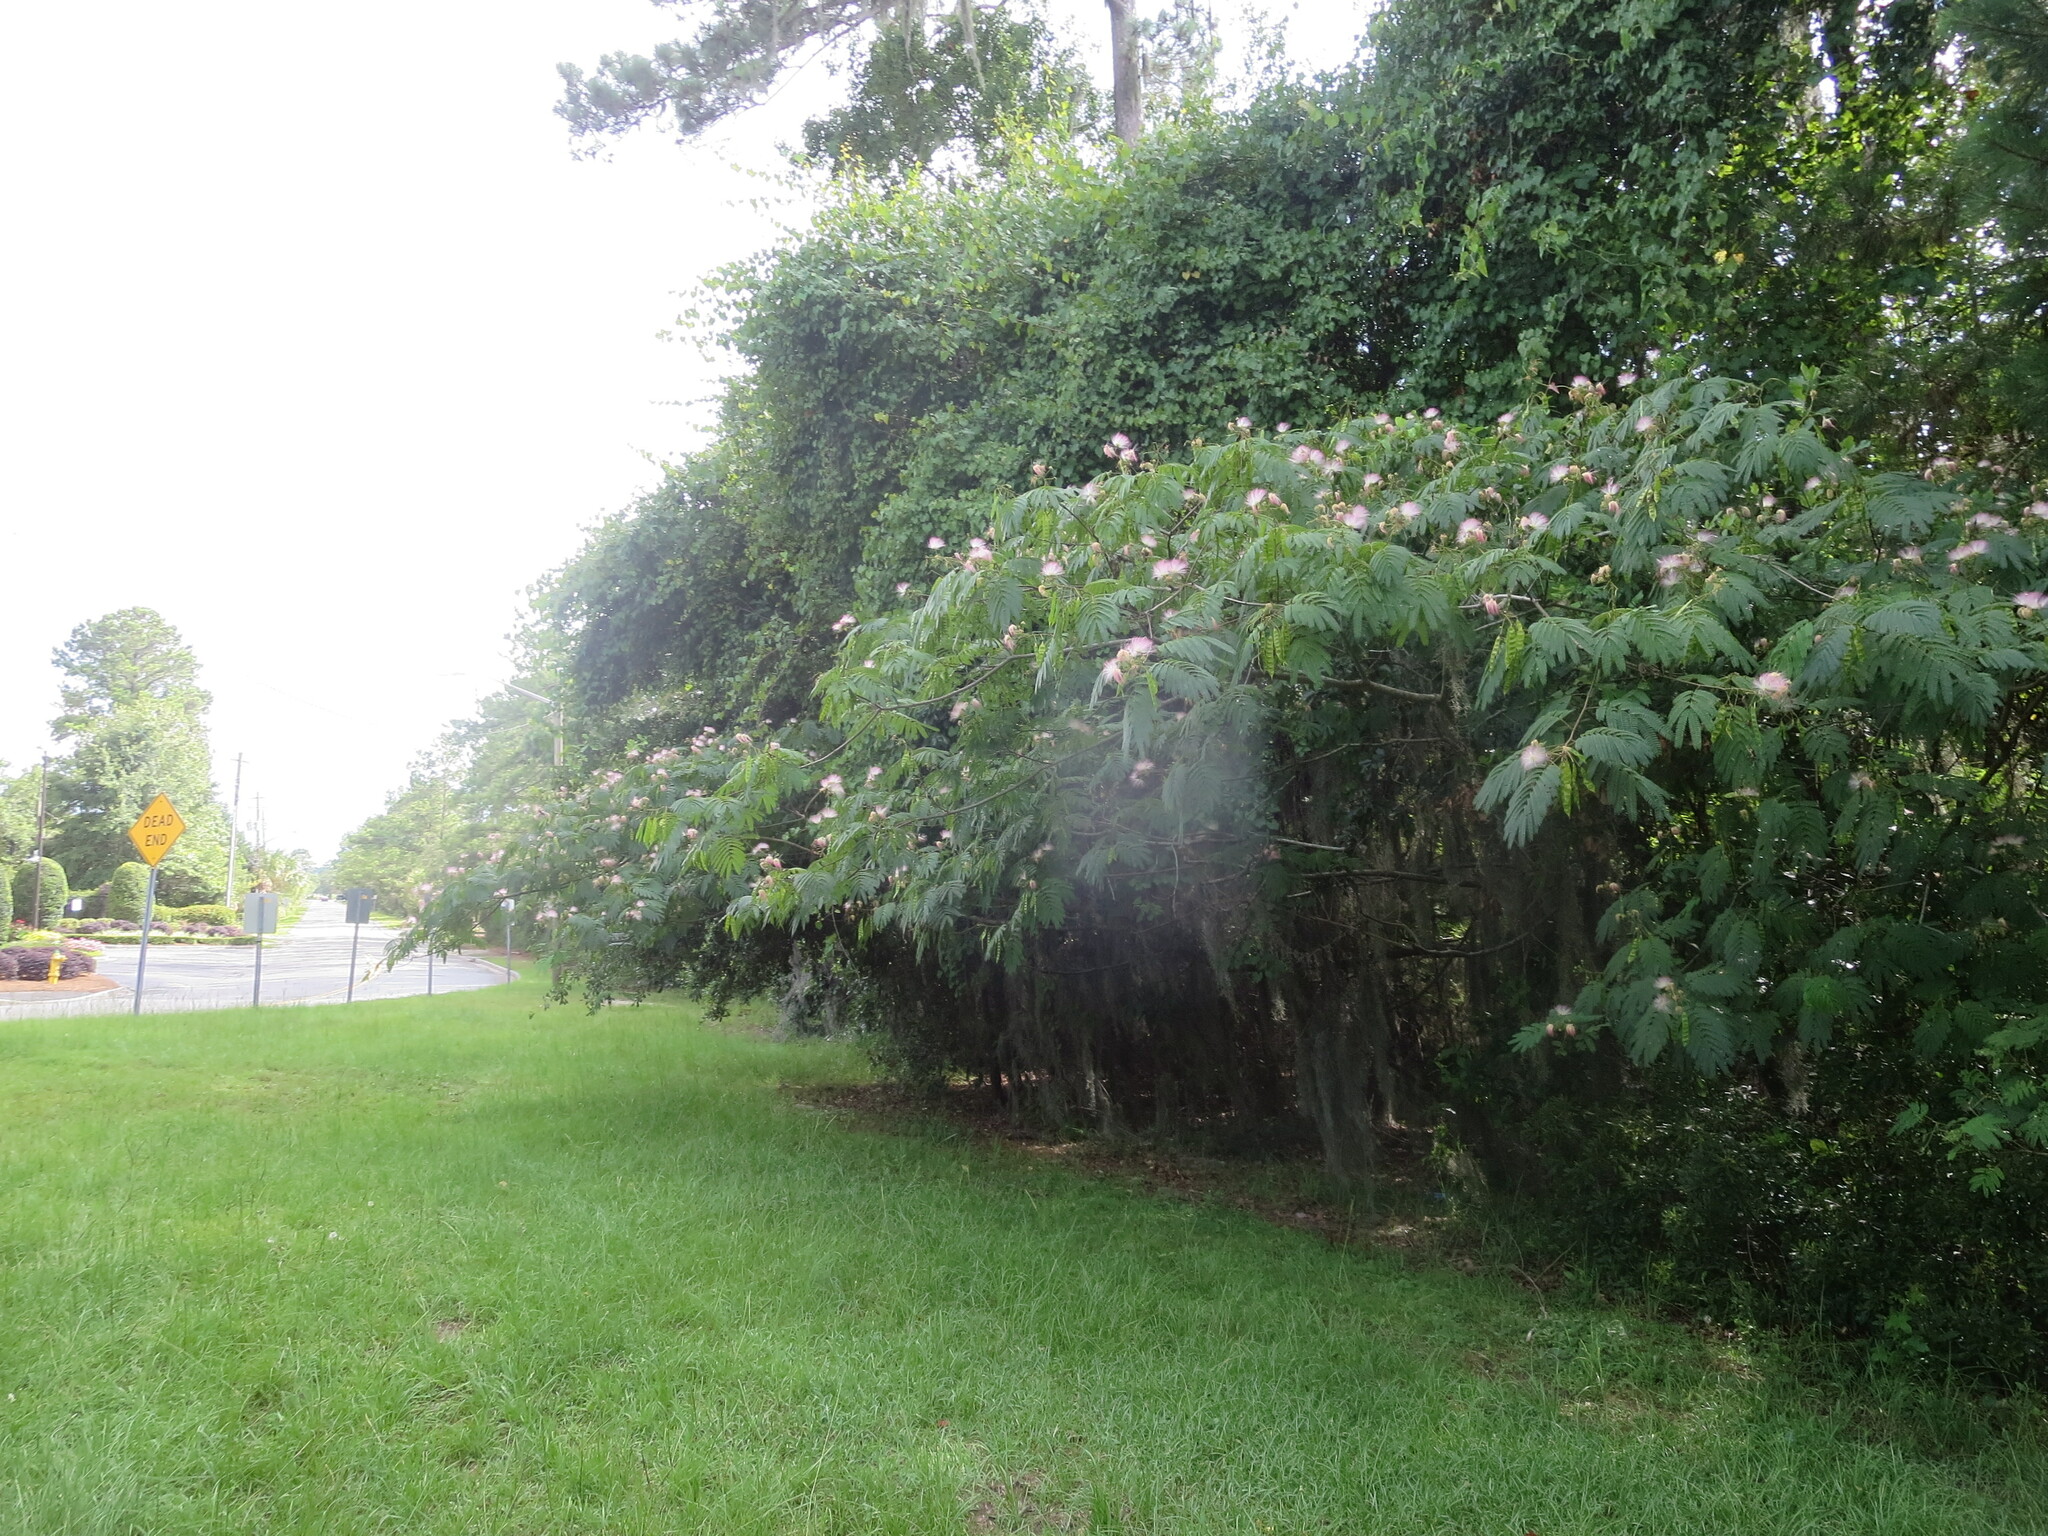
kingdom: Plantae
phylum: Tracheophyta
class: Magnoliopsida
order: Fabales
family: Fabaceae
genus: Albizia
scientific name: Albizia julibrissin
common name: Silktree
